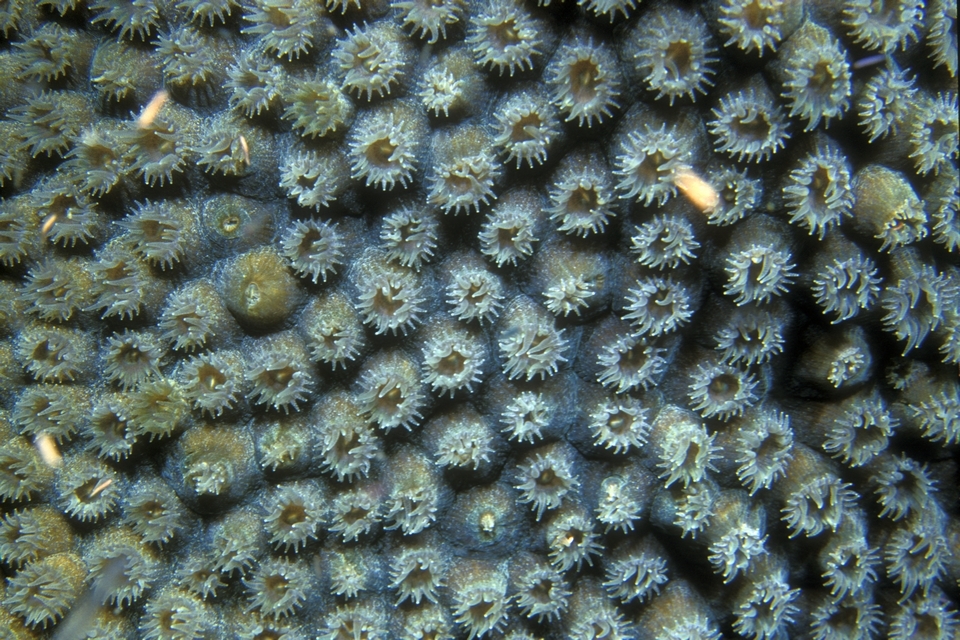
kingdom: Animalia
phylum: Cnidaria
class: Anthozoa
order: Scleractinia
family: Montastraeidae
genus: Montastraea
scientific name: Montastraea cavernosa
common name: Great star coral
